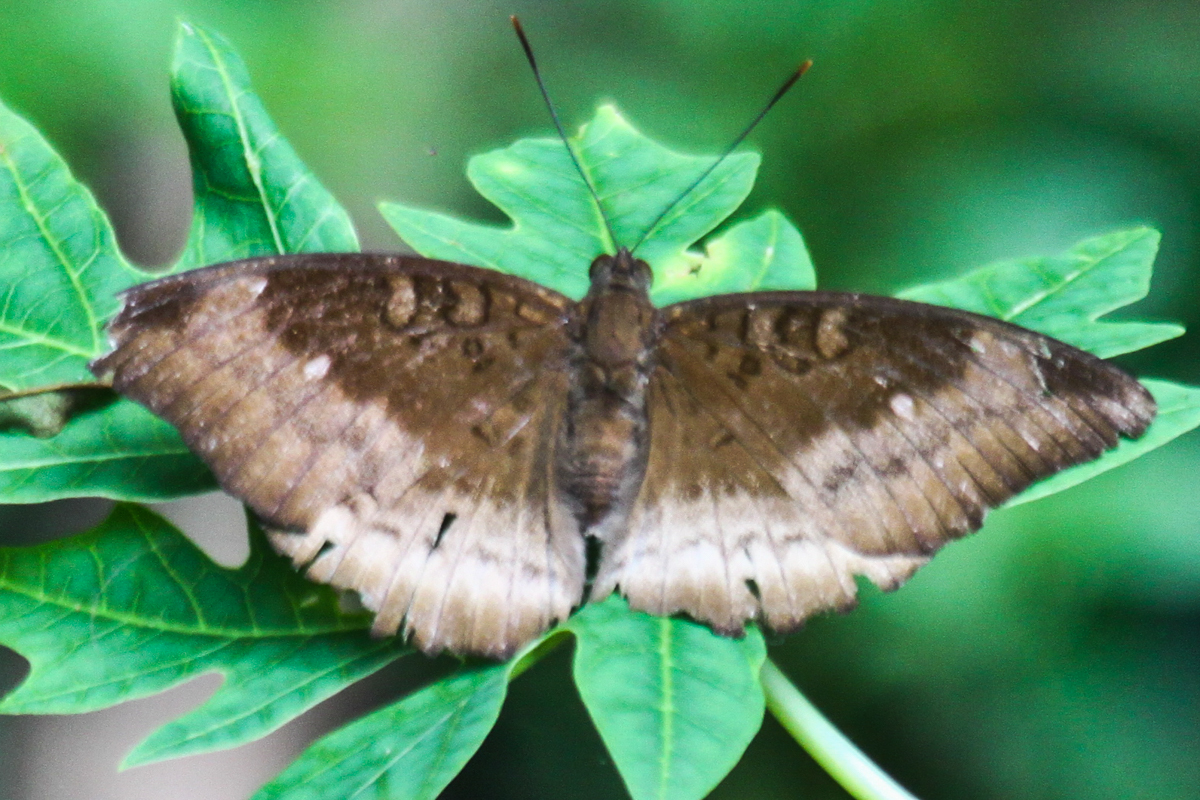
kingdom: Animalia
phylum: Arthropoda
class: Insecta
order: Lepidoptera
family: Nymphalidae
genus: Euthalia
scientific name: Euthalia monina
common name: Powdered baron
